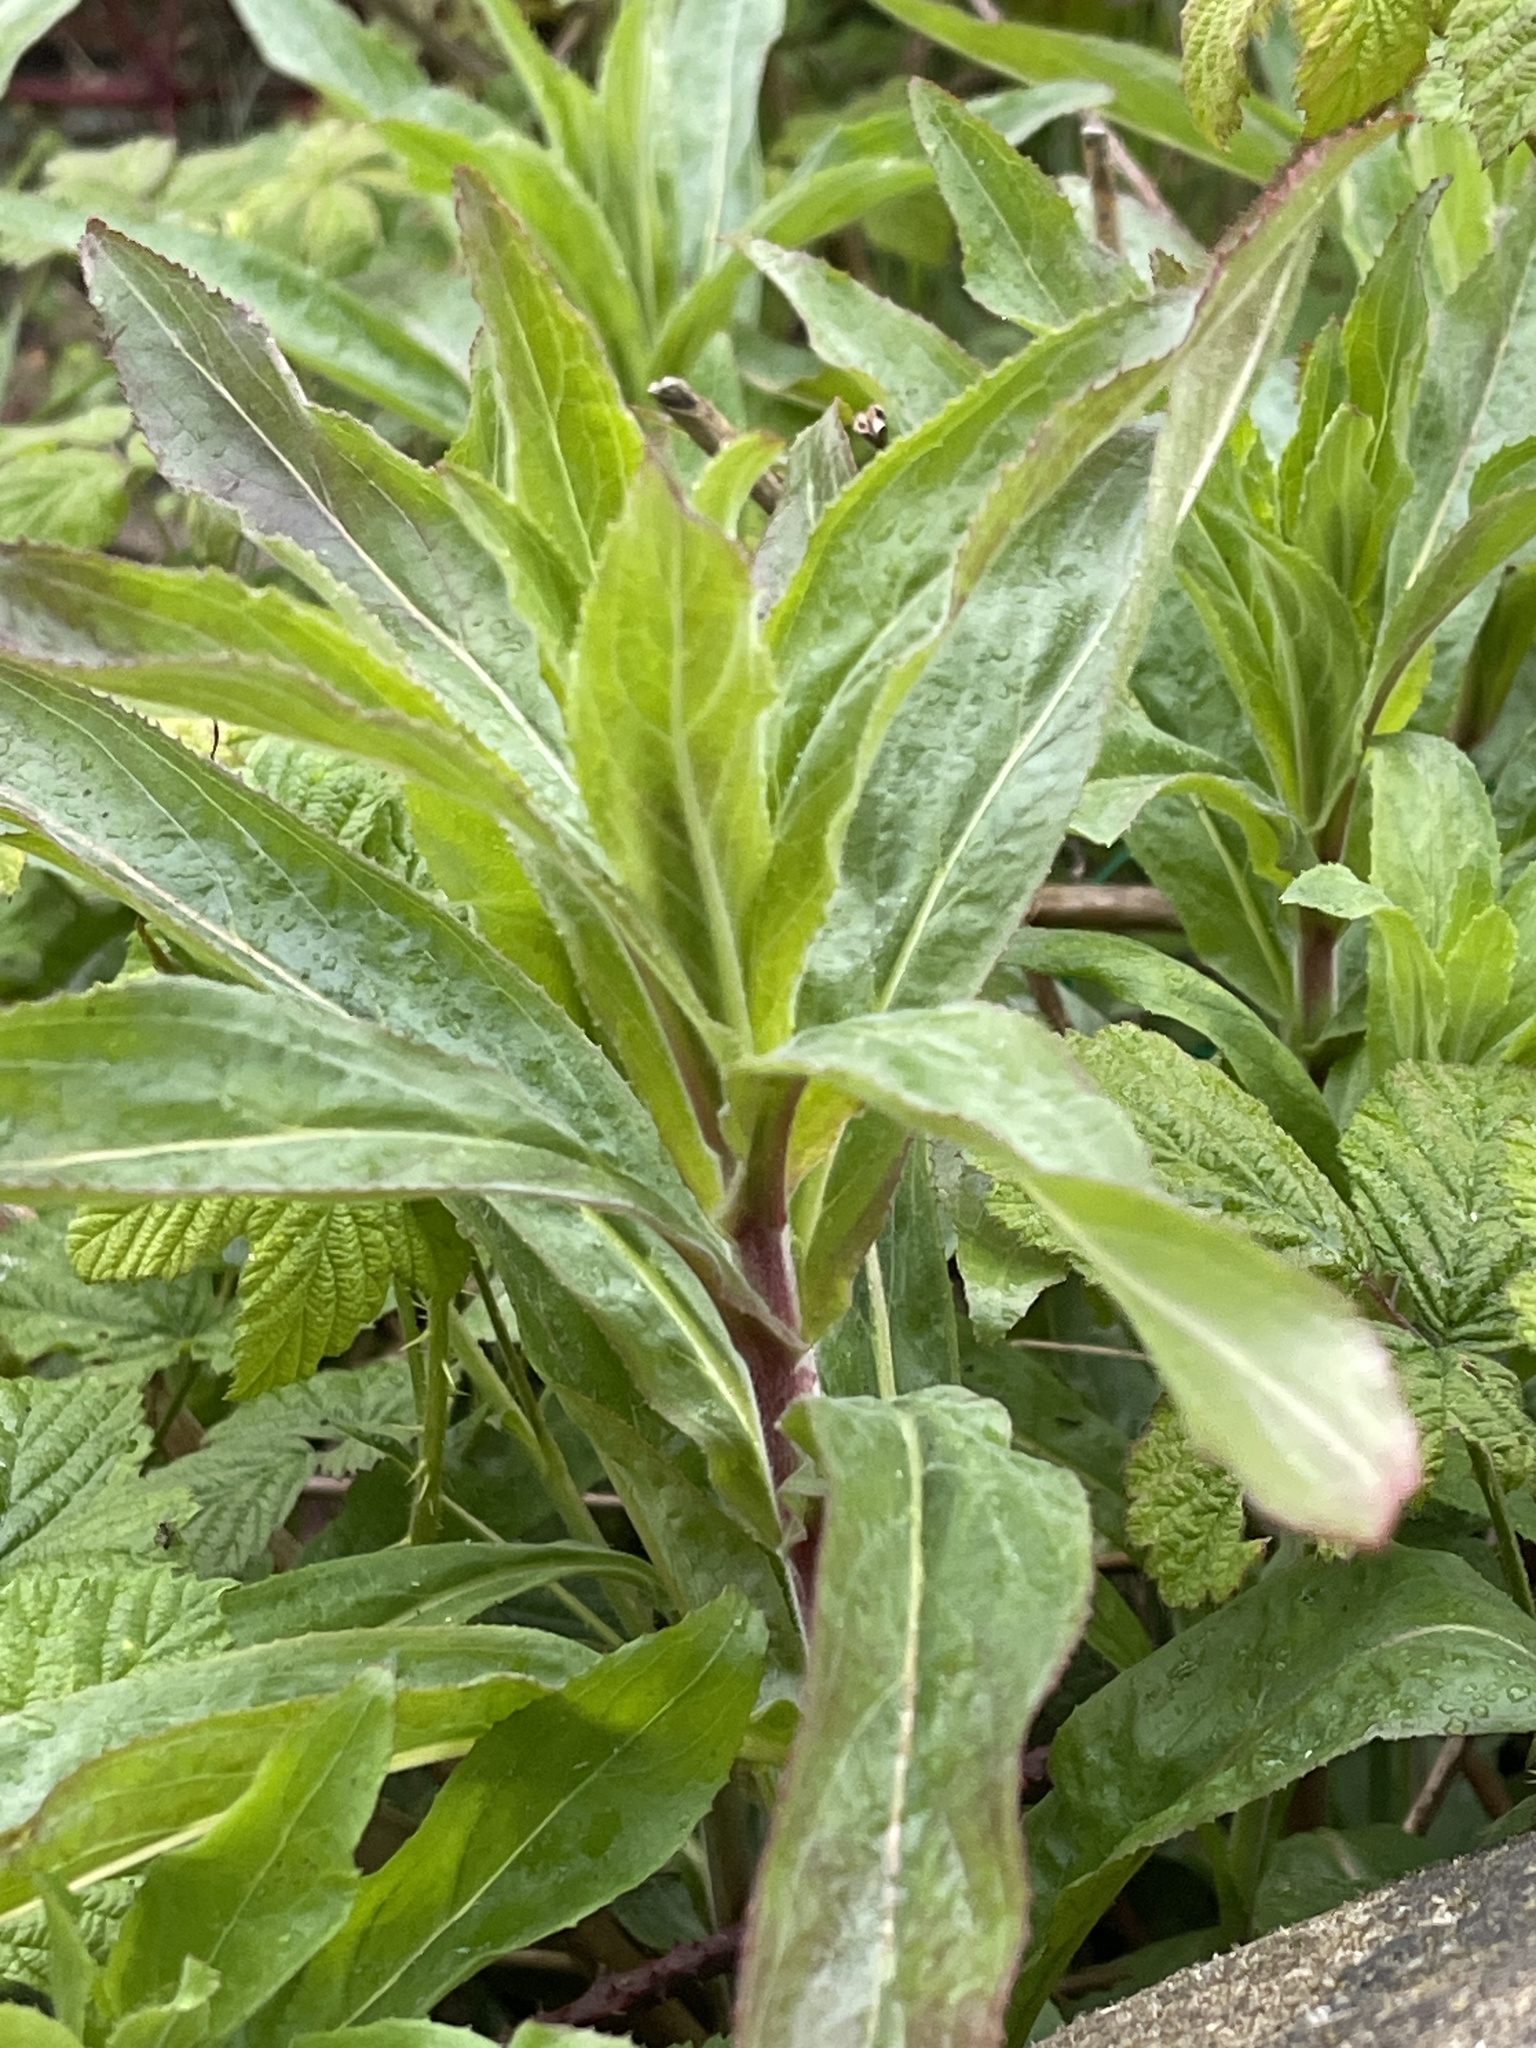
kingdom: Plantae
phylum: Tracheophyta
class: Magnoliopsida
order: Myrtales
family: Onagraceae
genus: Epilobium
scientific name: Epilobium hirsutum
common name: Great willowherb
